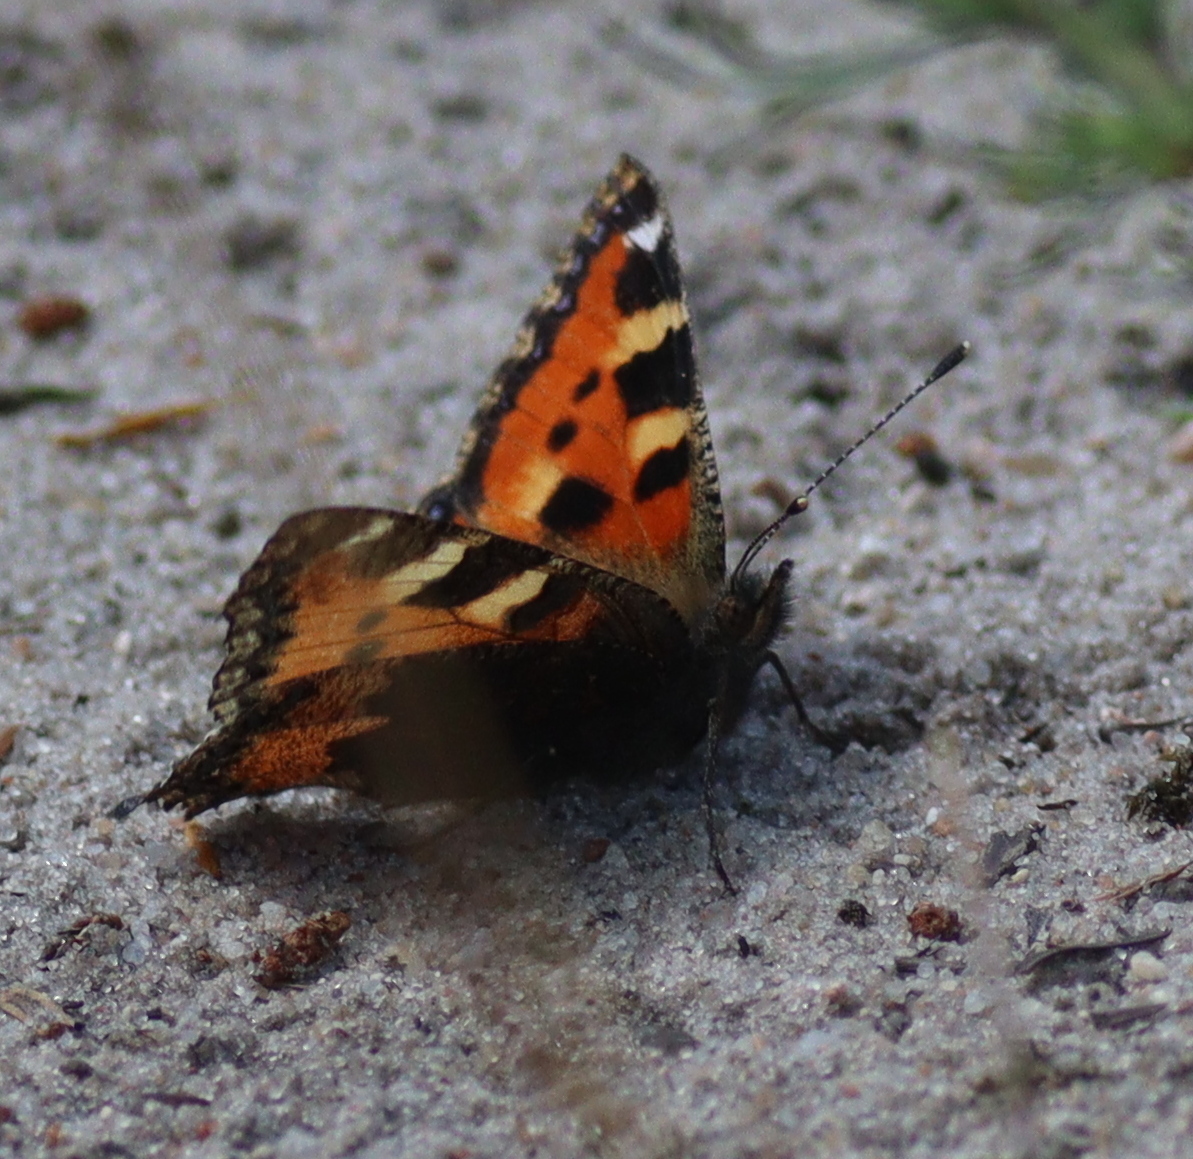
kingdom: Animalia
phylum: Arthropoda
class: Insecta
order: Lepidoptera
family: Nymphalidae
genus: Aglais
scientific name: Aglais urticae
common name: Small tortoiseshell
